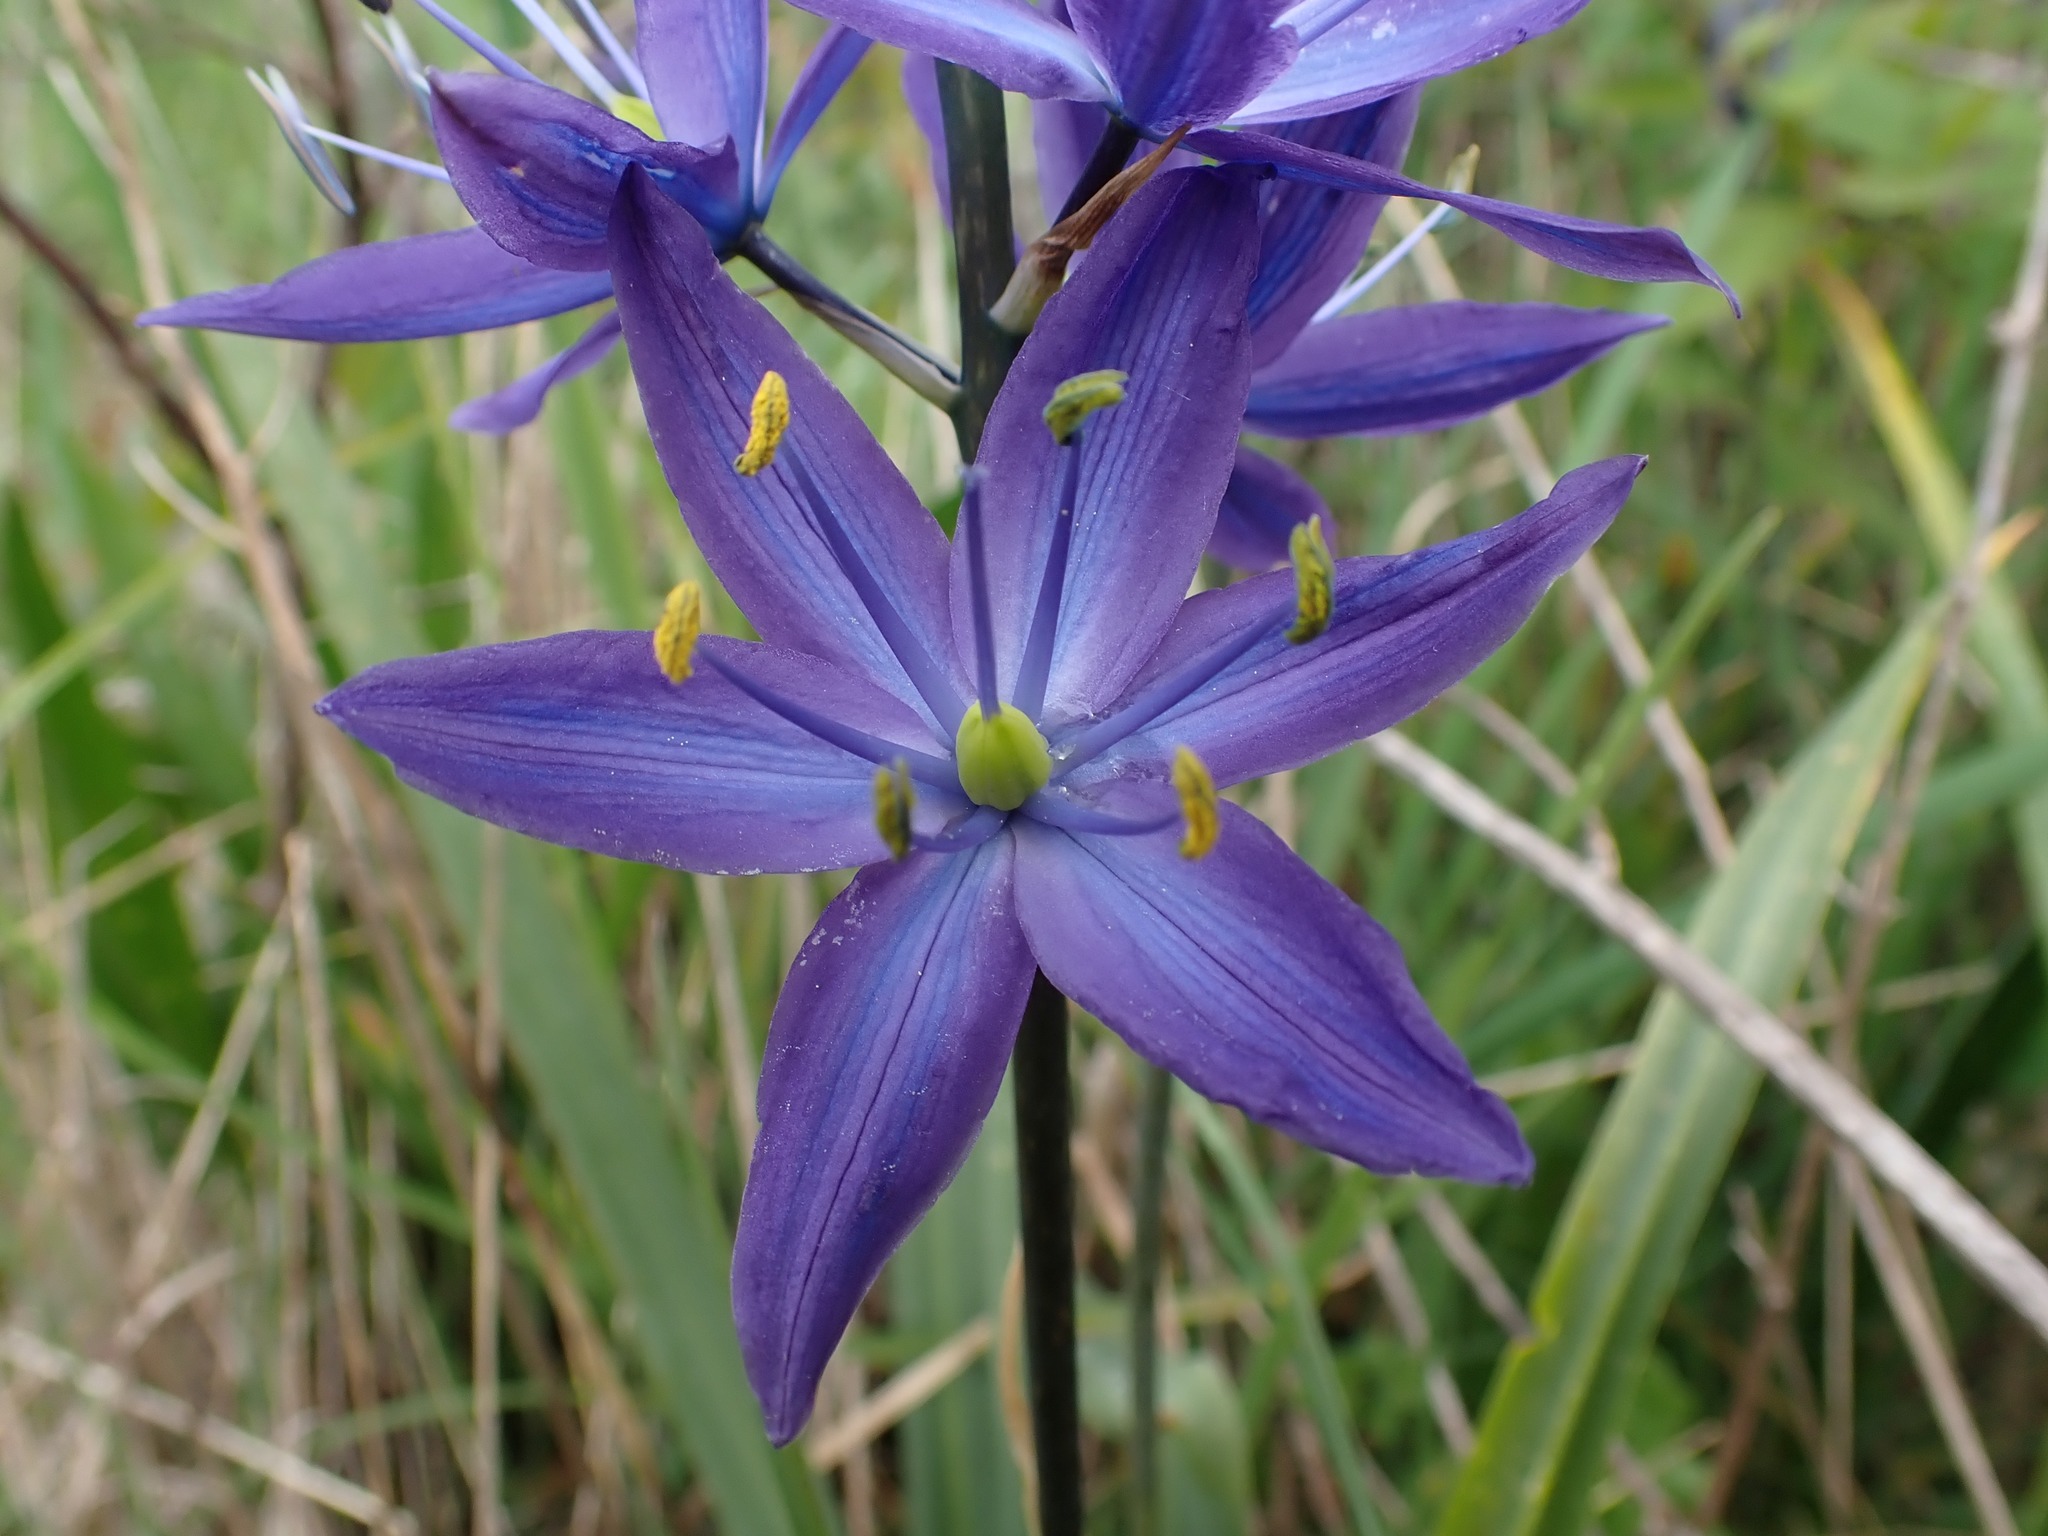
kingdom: Plantae
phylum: Tracheophyta
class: Liliopsida
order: Asparagales
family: Asparagaceae
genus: Camassia
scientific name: Camassia leichtlinii
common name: Leichtlin's camas
